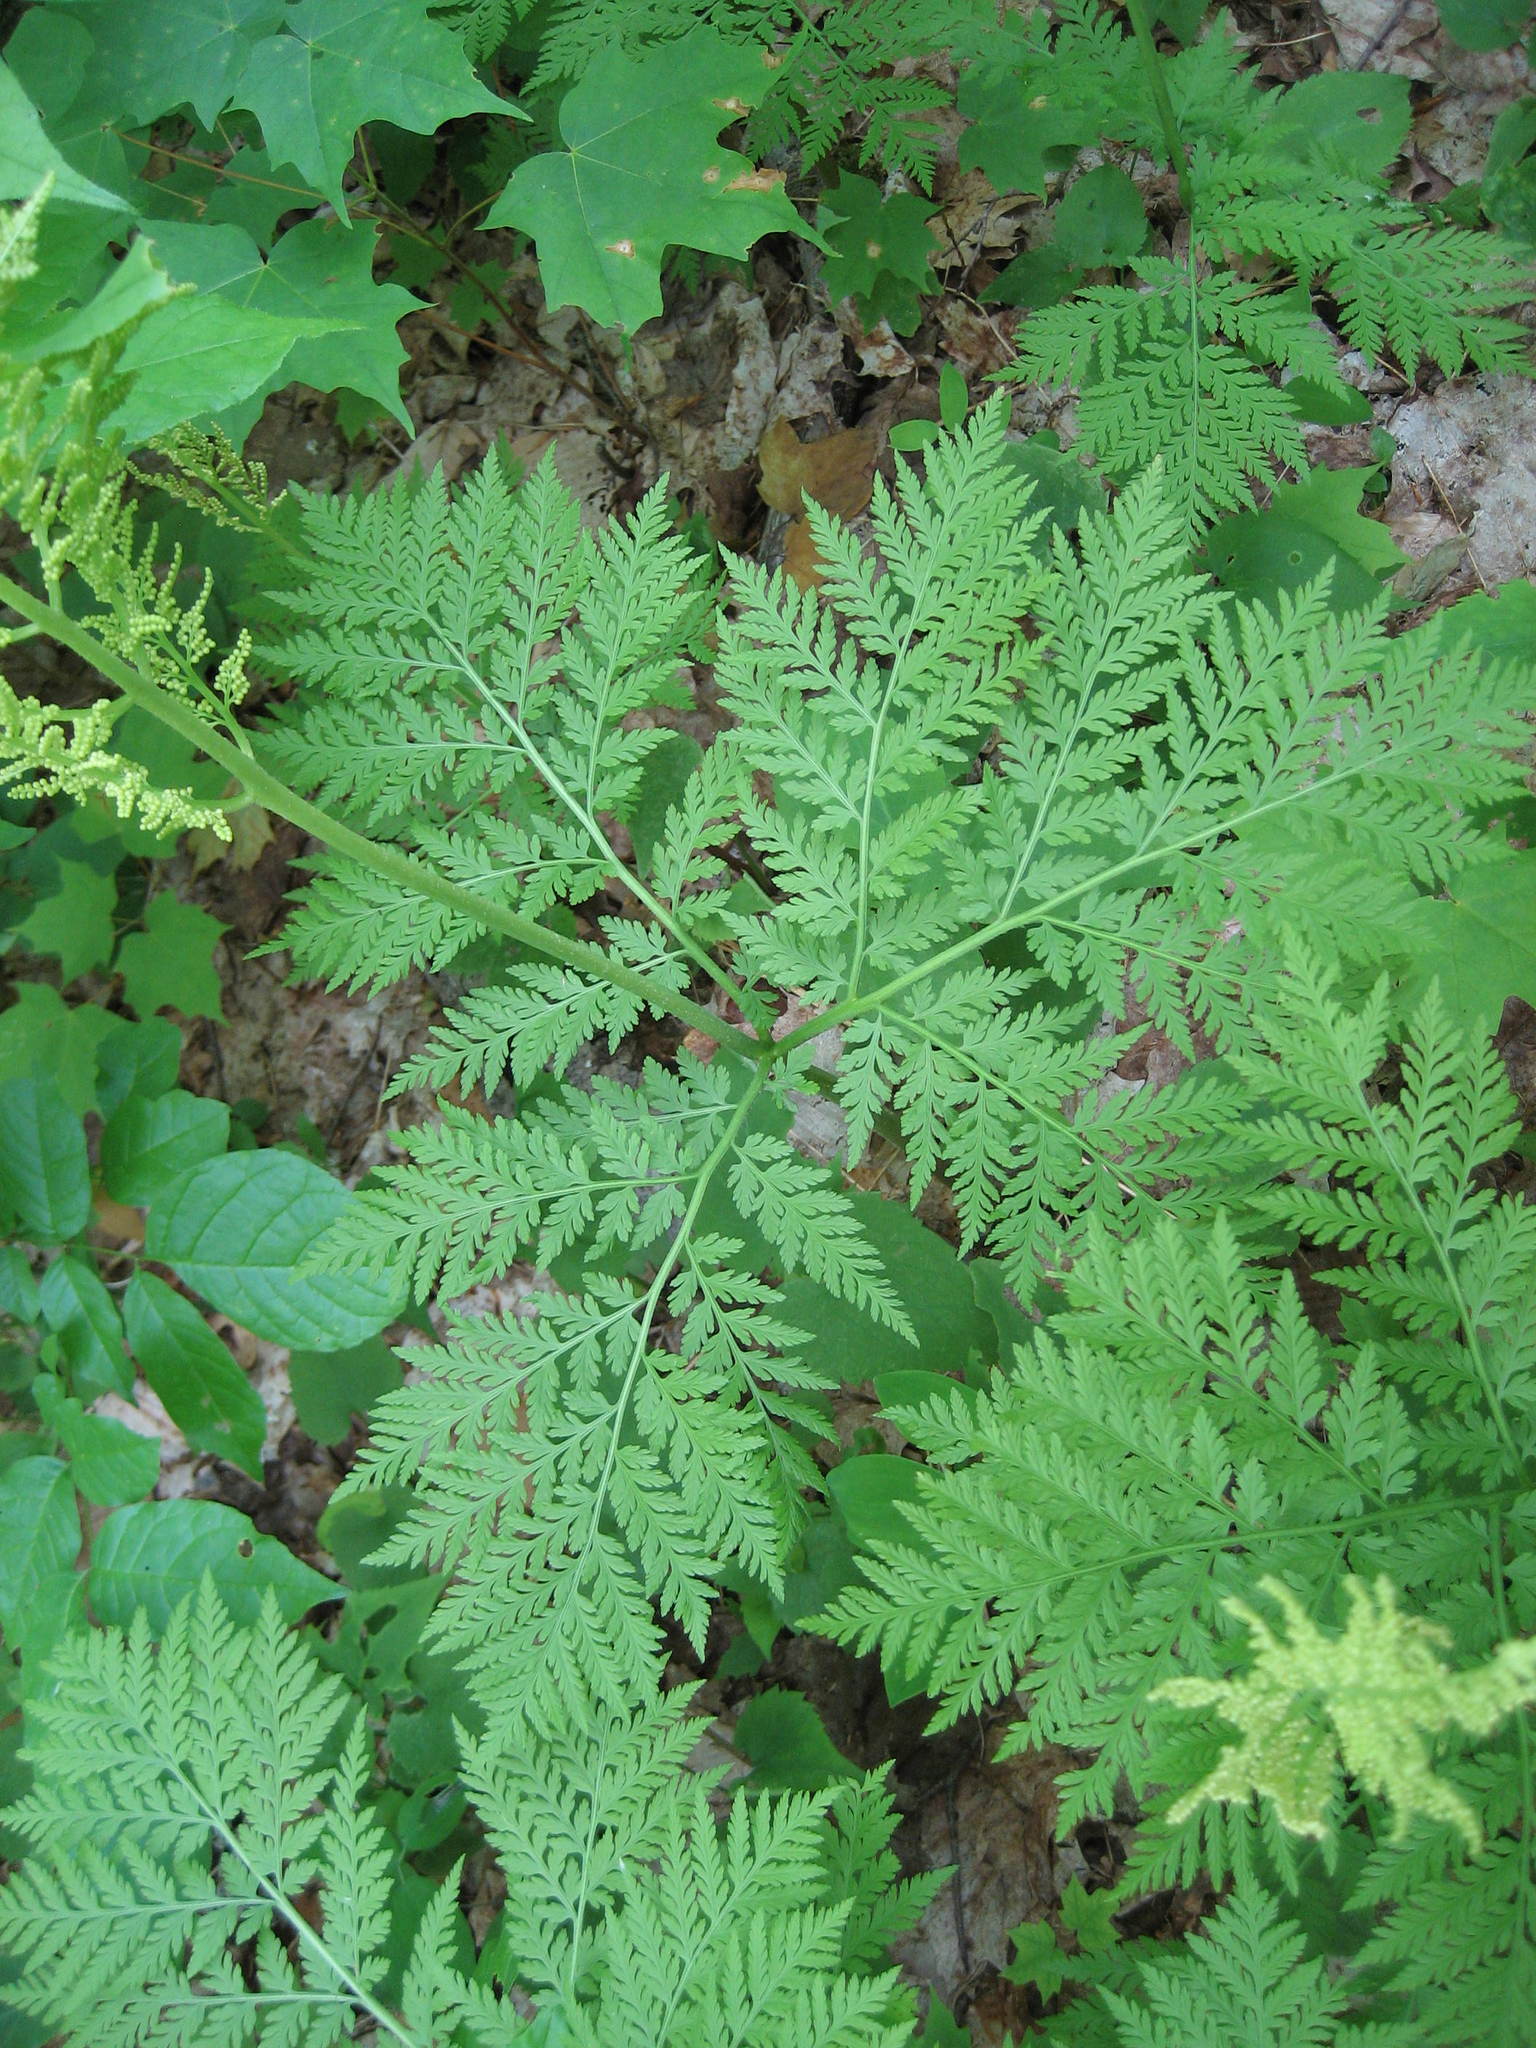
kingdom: Plantae
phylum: Tracheophyta
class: Polypodiopsida
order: Ophioglossales
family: Ophioglossaceae
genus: Botrypus
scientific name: Botrypus virginianus
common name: Common grapefern
